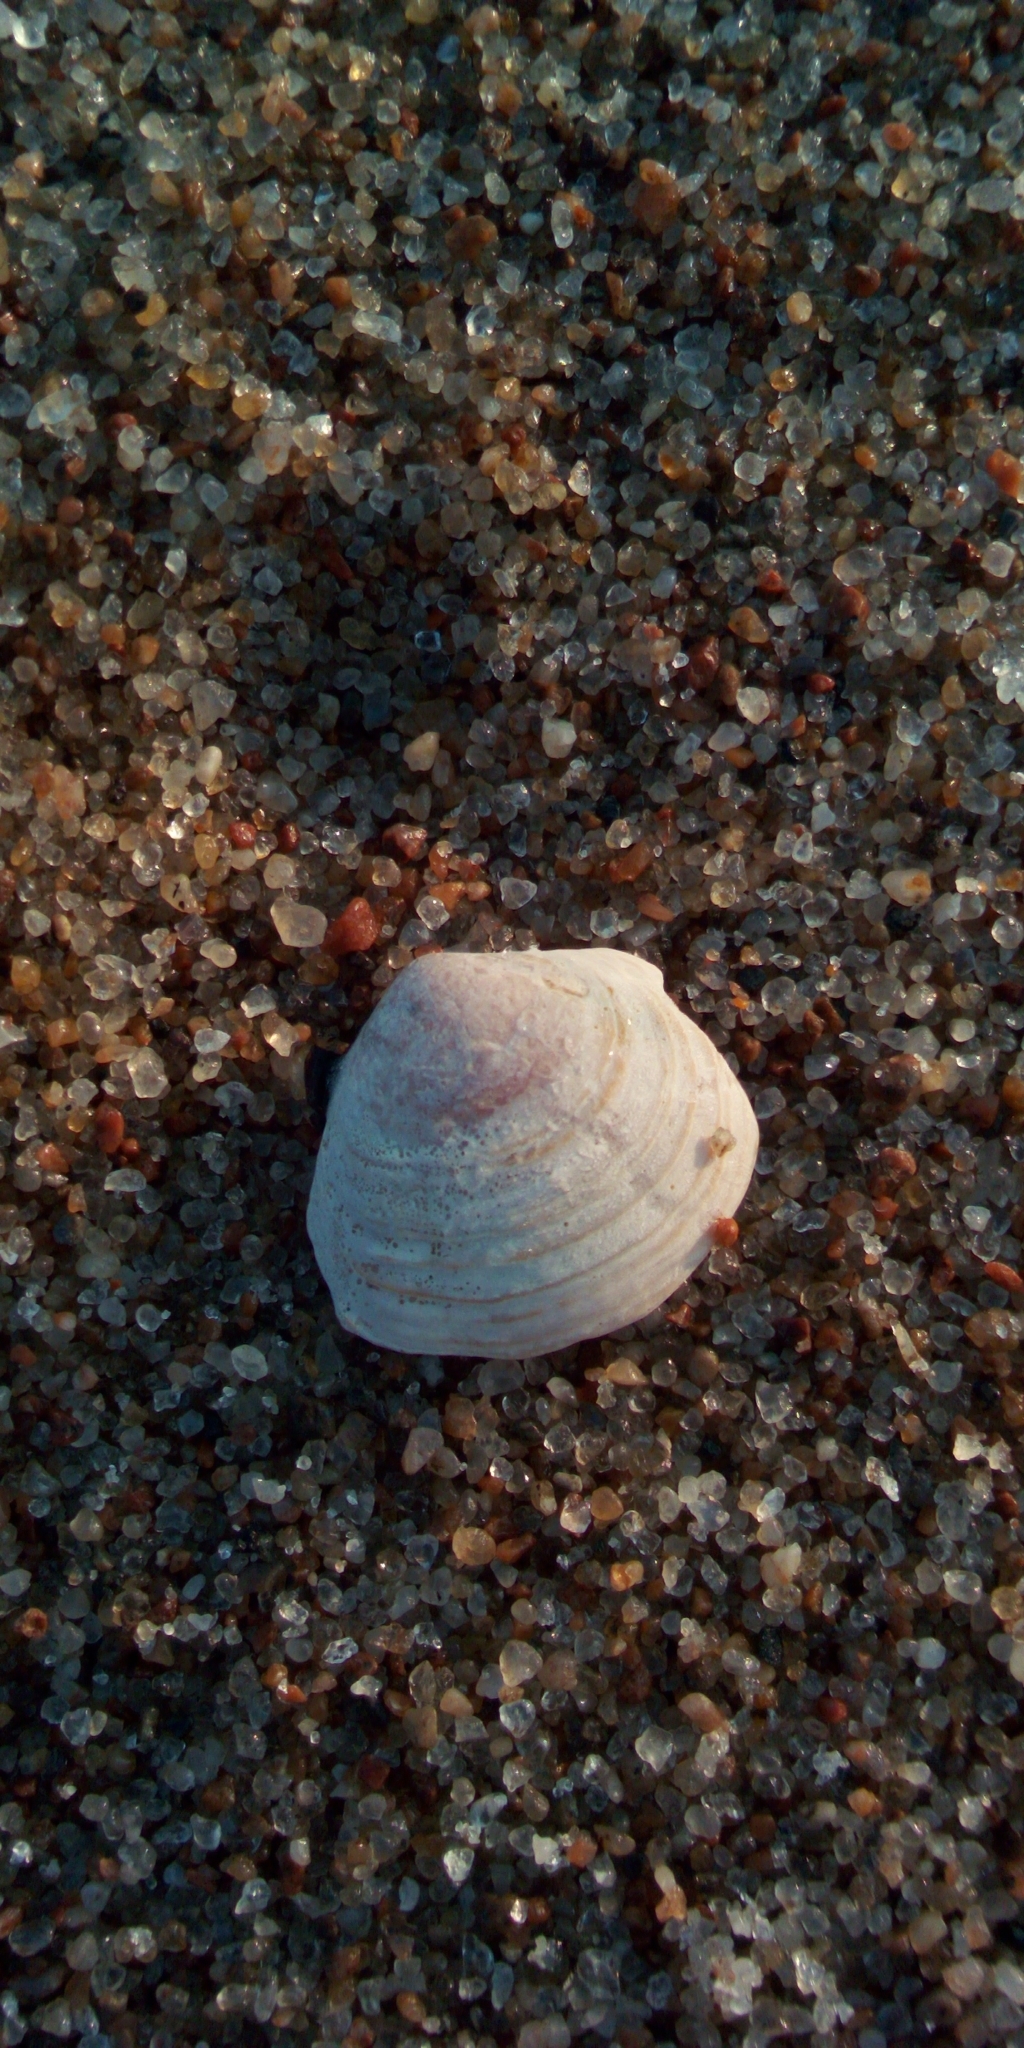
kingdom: Animalia
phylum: Mollusca
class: Bivalvia
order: Cardiida
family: Tellinidae
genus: Macoma
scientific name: Macoma balthica
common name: Baltic tellin
